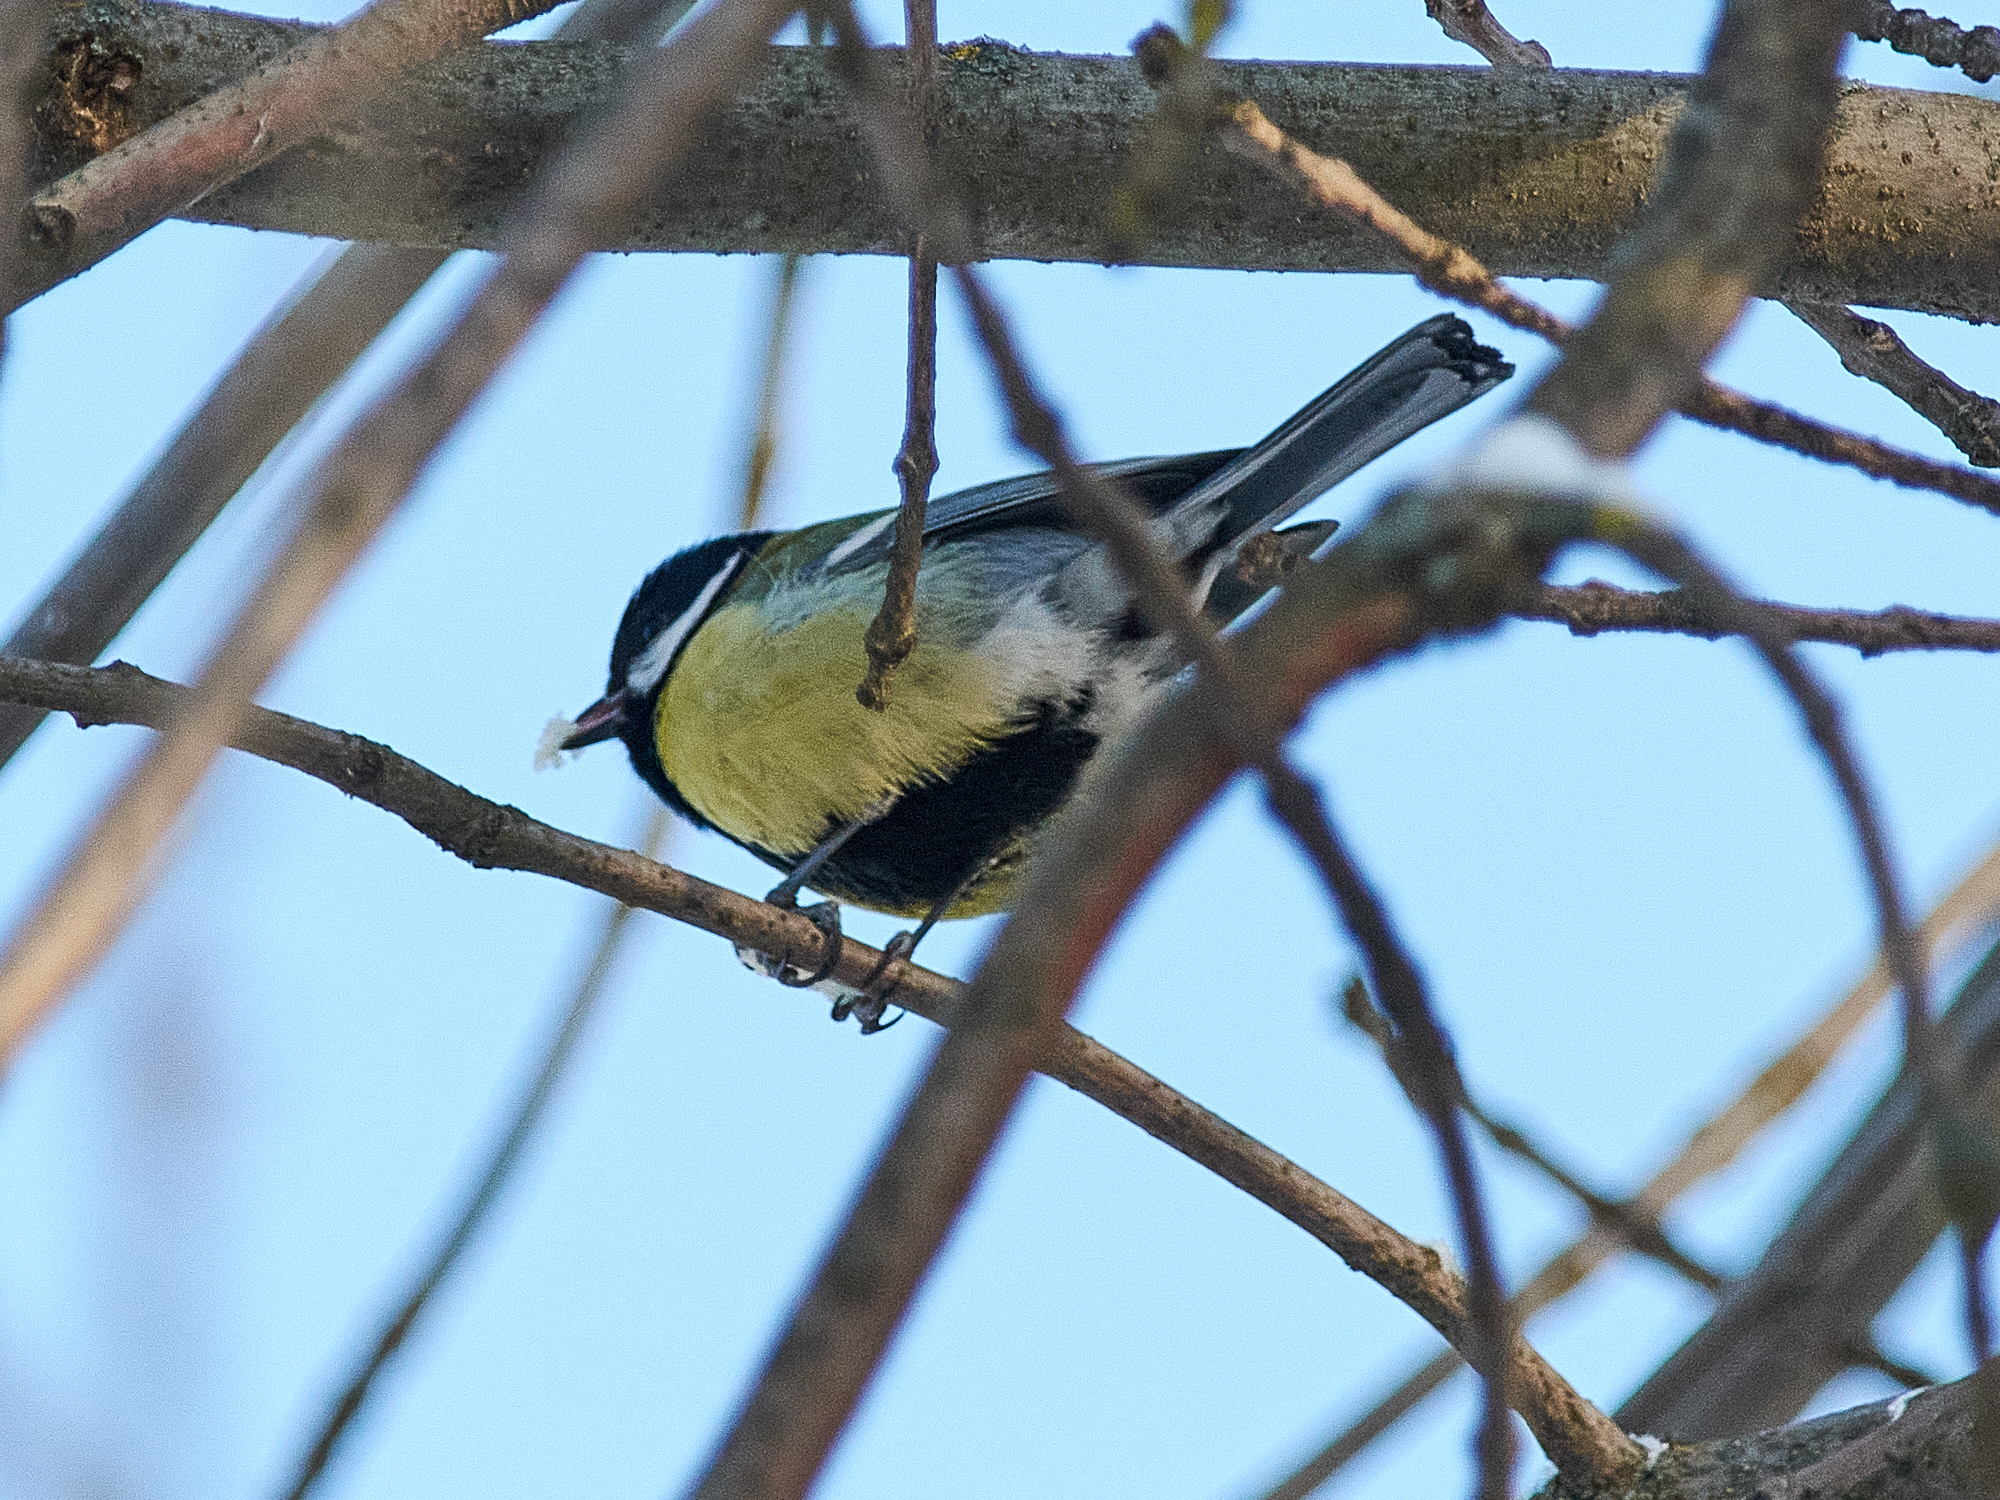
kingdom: Animalia
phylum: Chordata
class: Aves
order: Passeriformes
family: Paridae
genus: Parus
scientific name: Parus major
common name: Great tit
